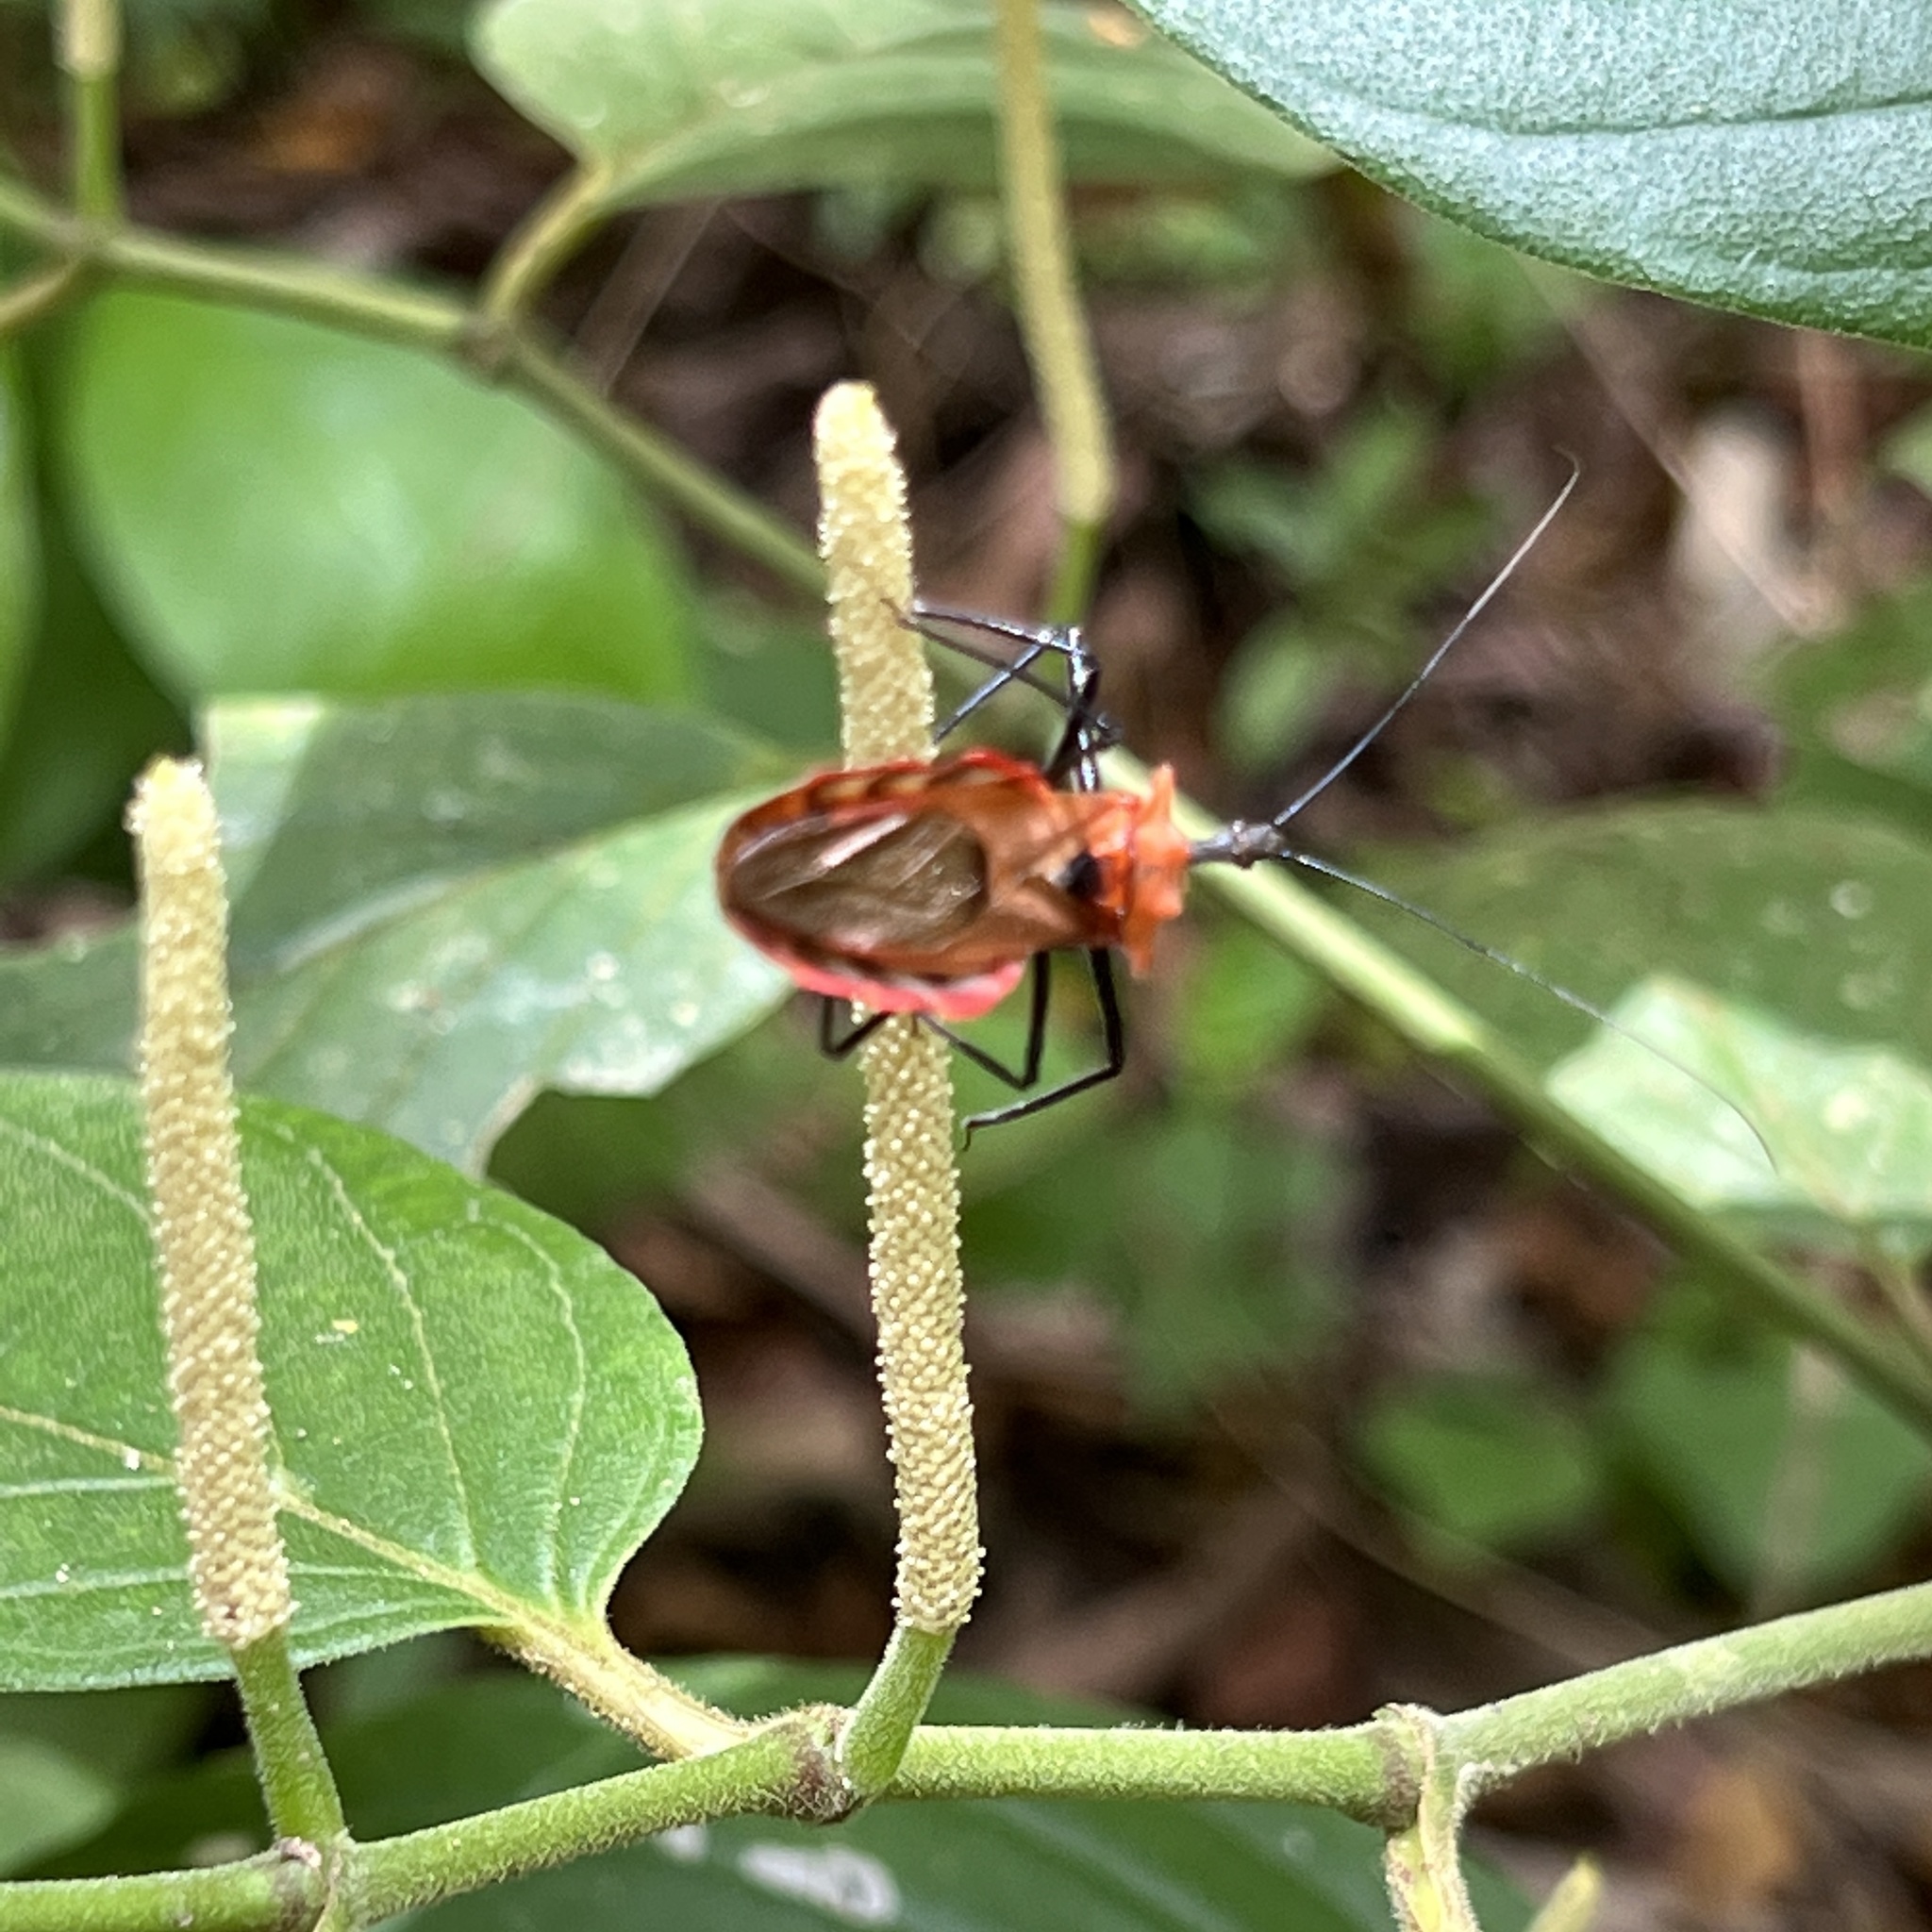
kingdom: Animalia
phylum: Arthropoda
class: Insecta
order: Hemiptera
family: Reduviidae
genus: Montina
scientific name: Montina scutellaris
